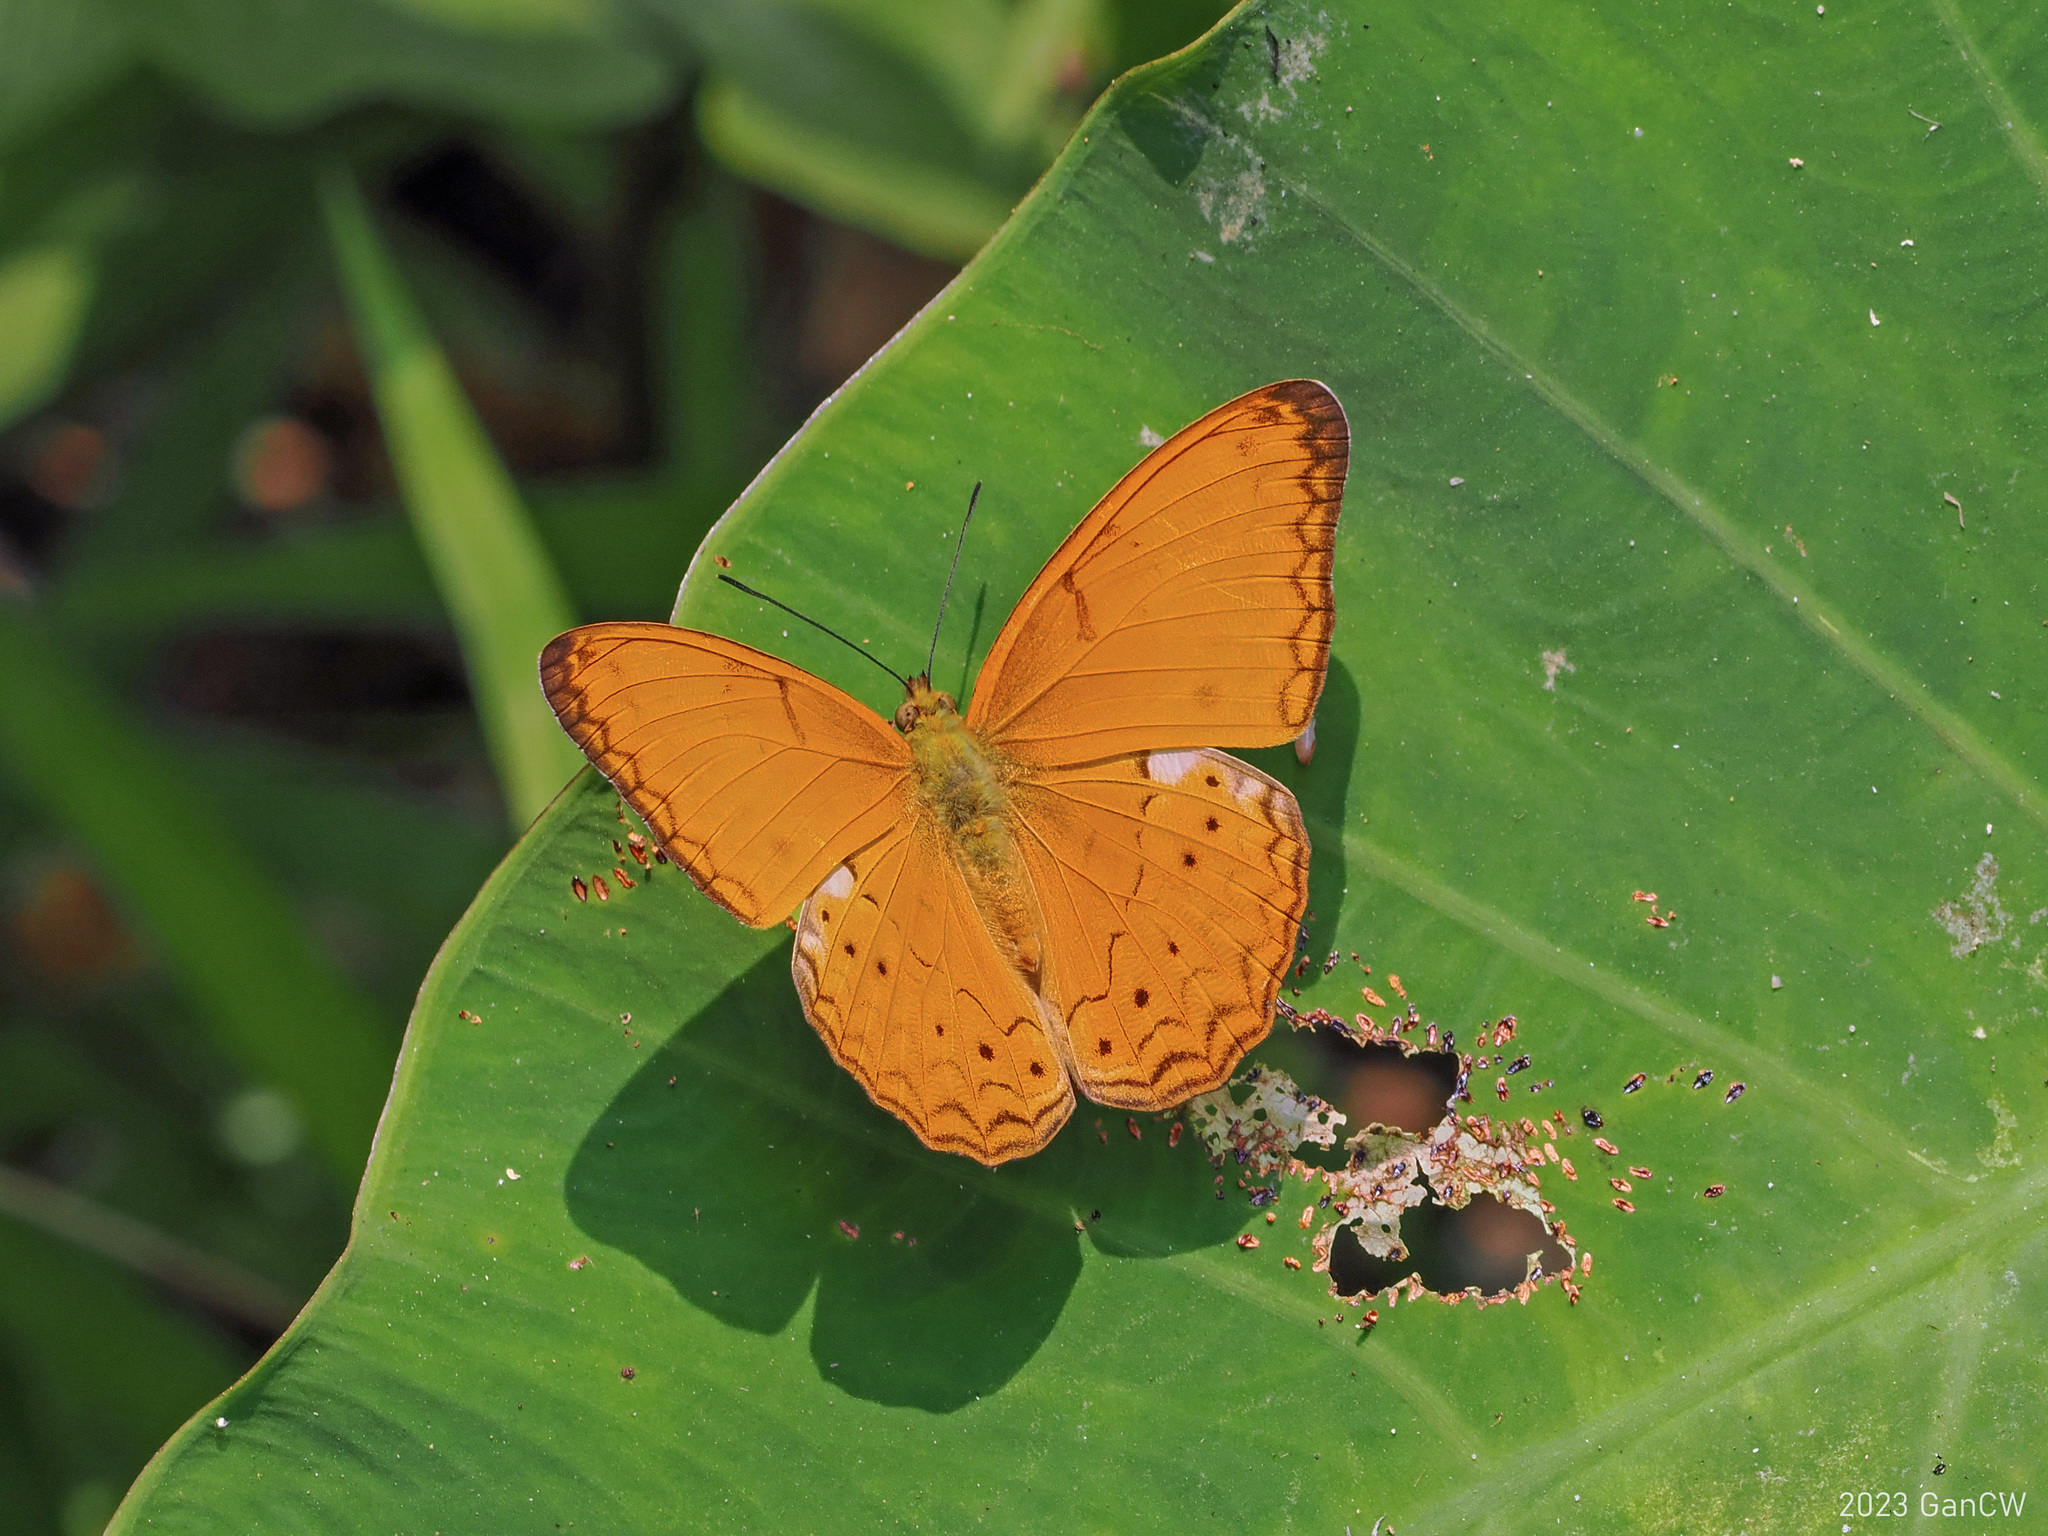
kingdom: Animalia
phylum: Arthropoda
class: Insecta
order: Lepidoptera
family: Nymphalidae
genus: Cirrochroa
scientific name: Cirrochroa tyche
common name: Common yeoman
